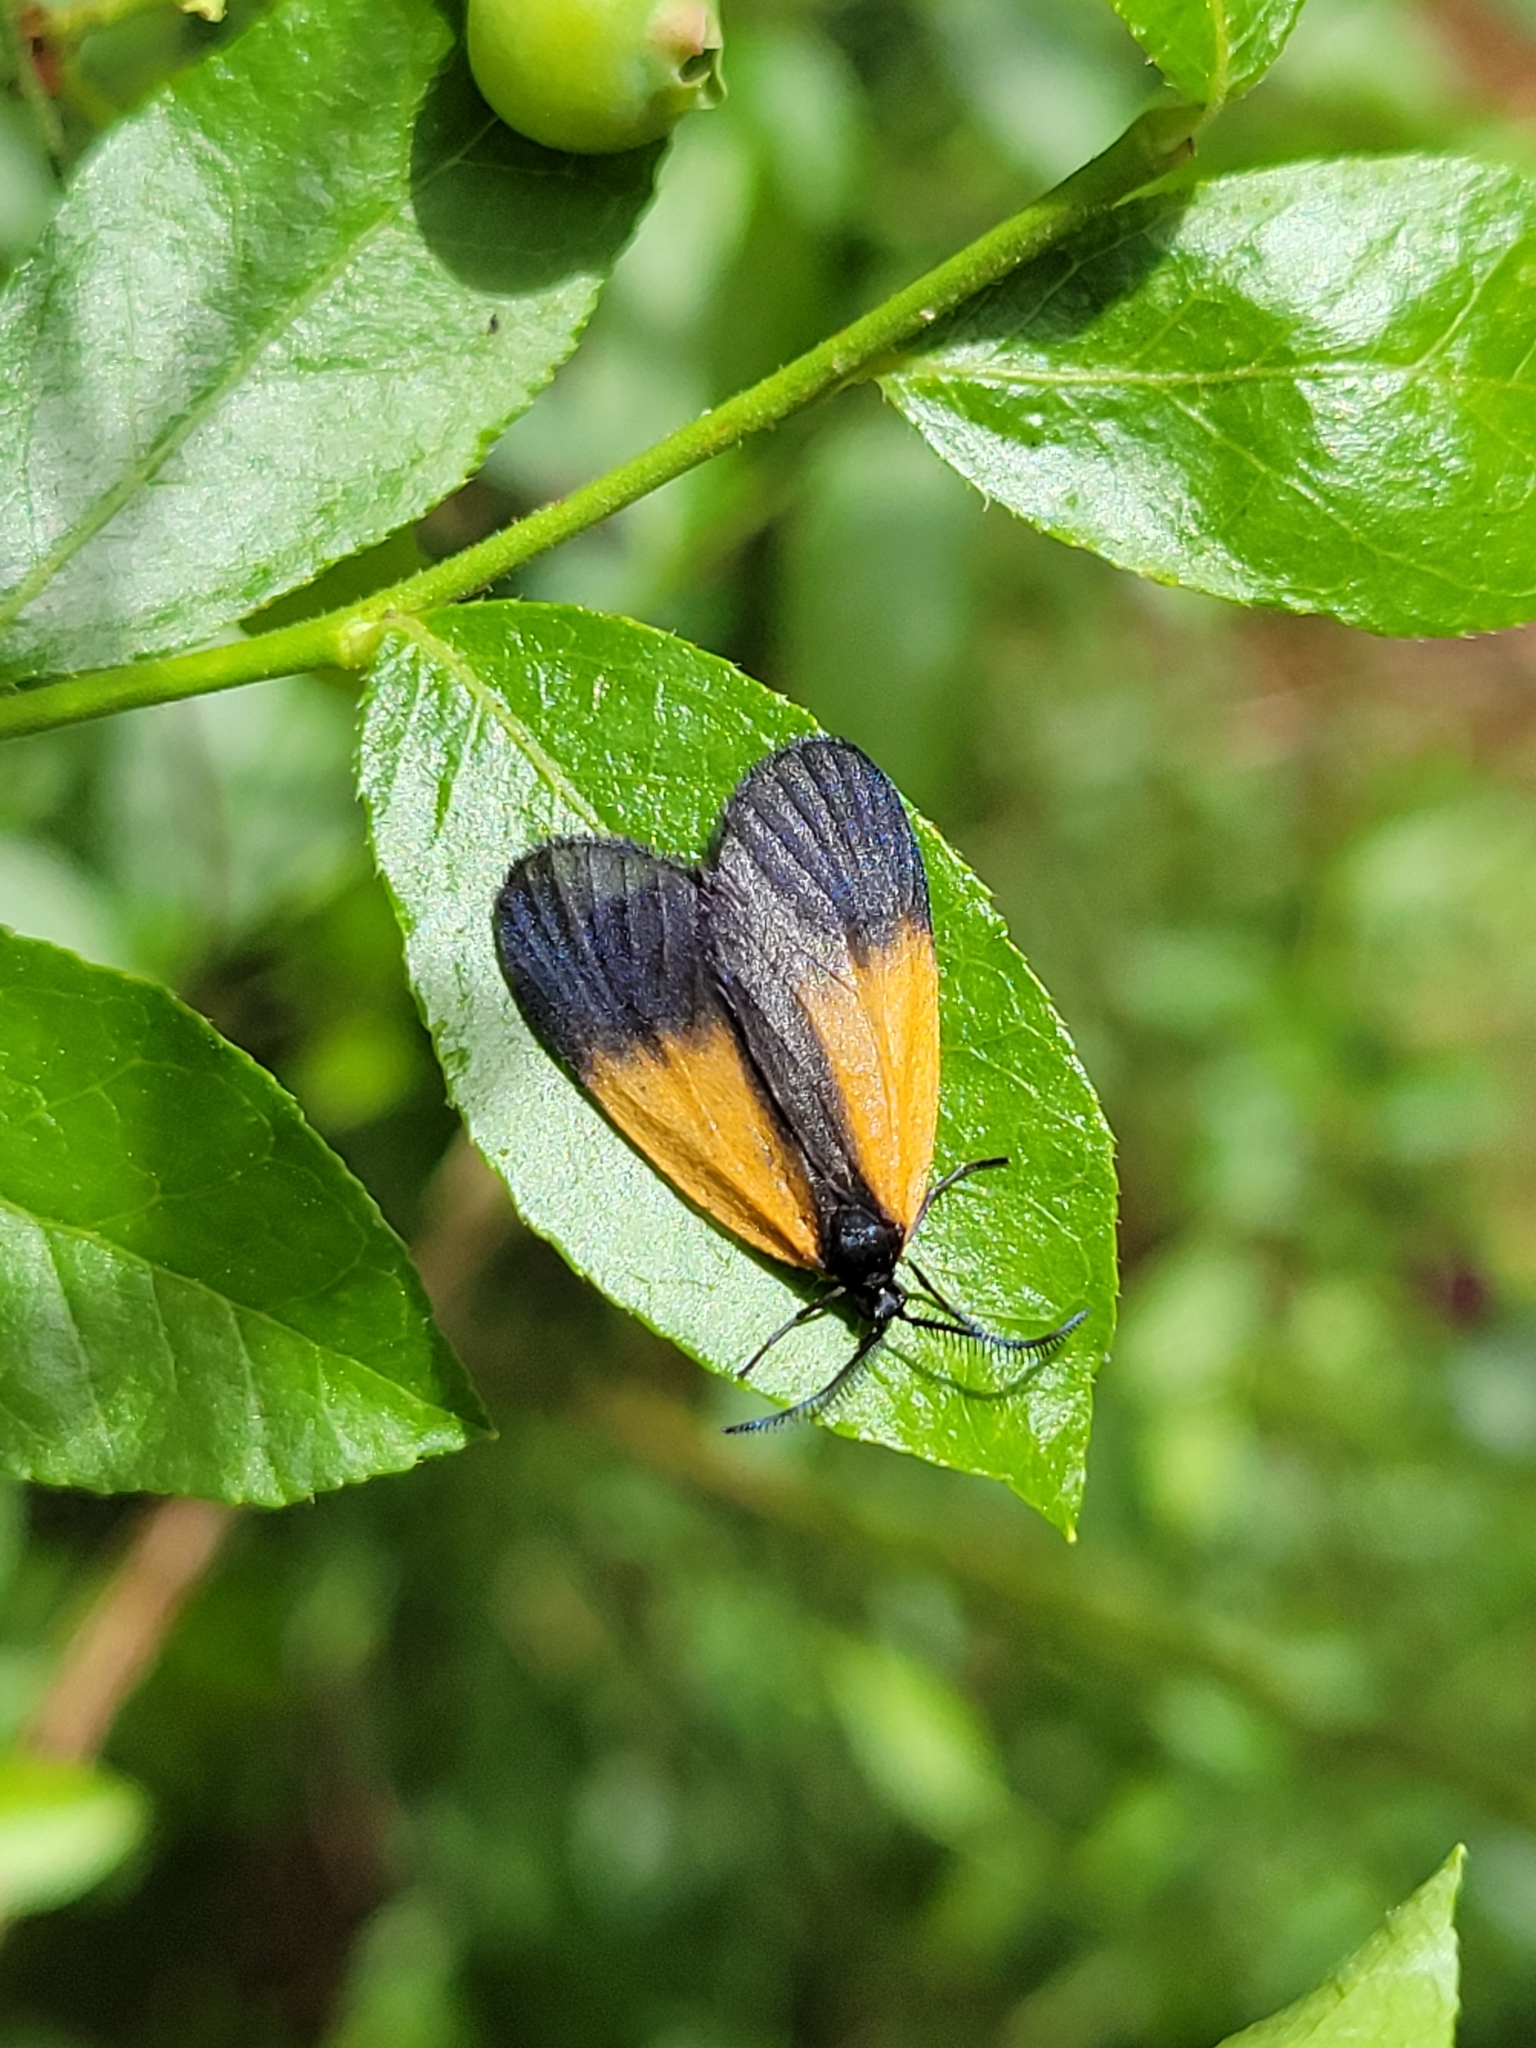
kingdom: Animalia
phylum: Arthropoda
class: Insecta
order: Lepidoptera
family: Zygaenidae
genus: Malthaca
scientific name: Malthaca dimidiata
